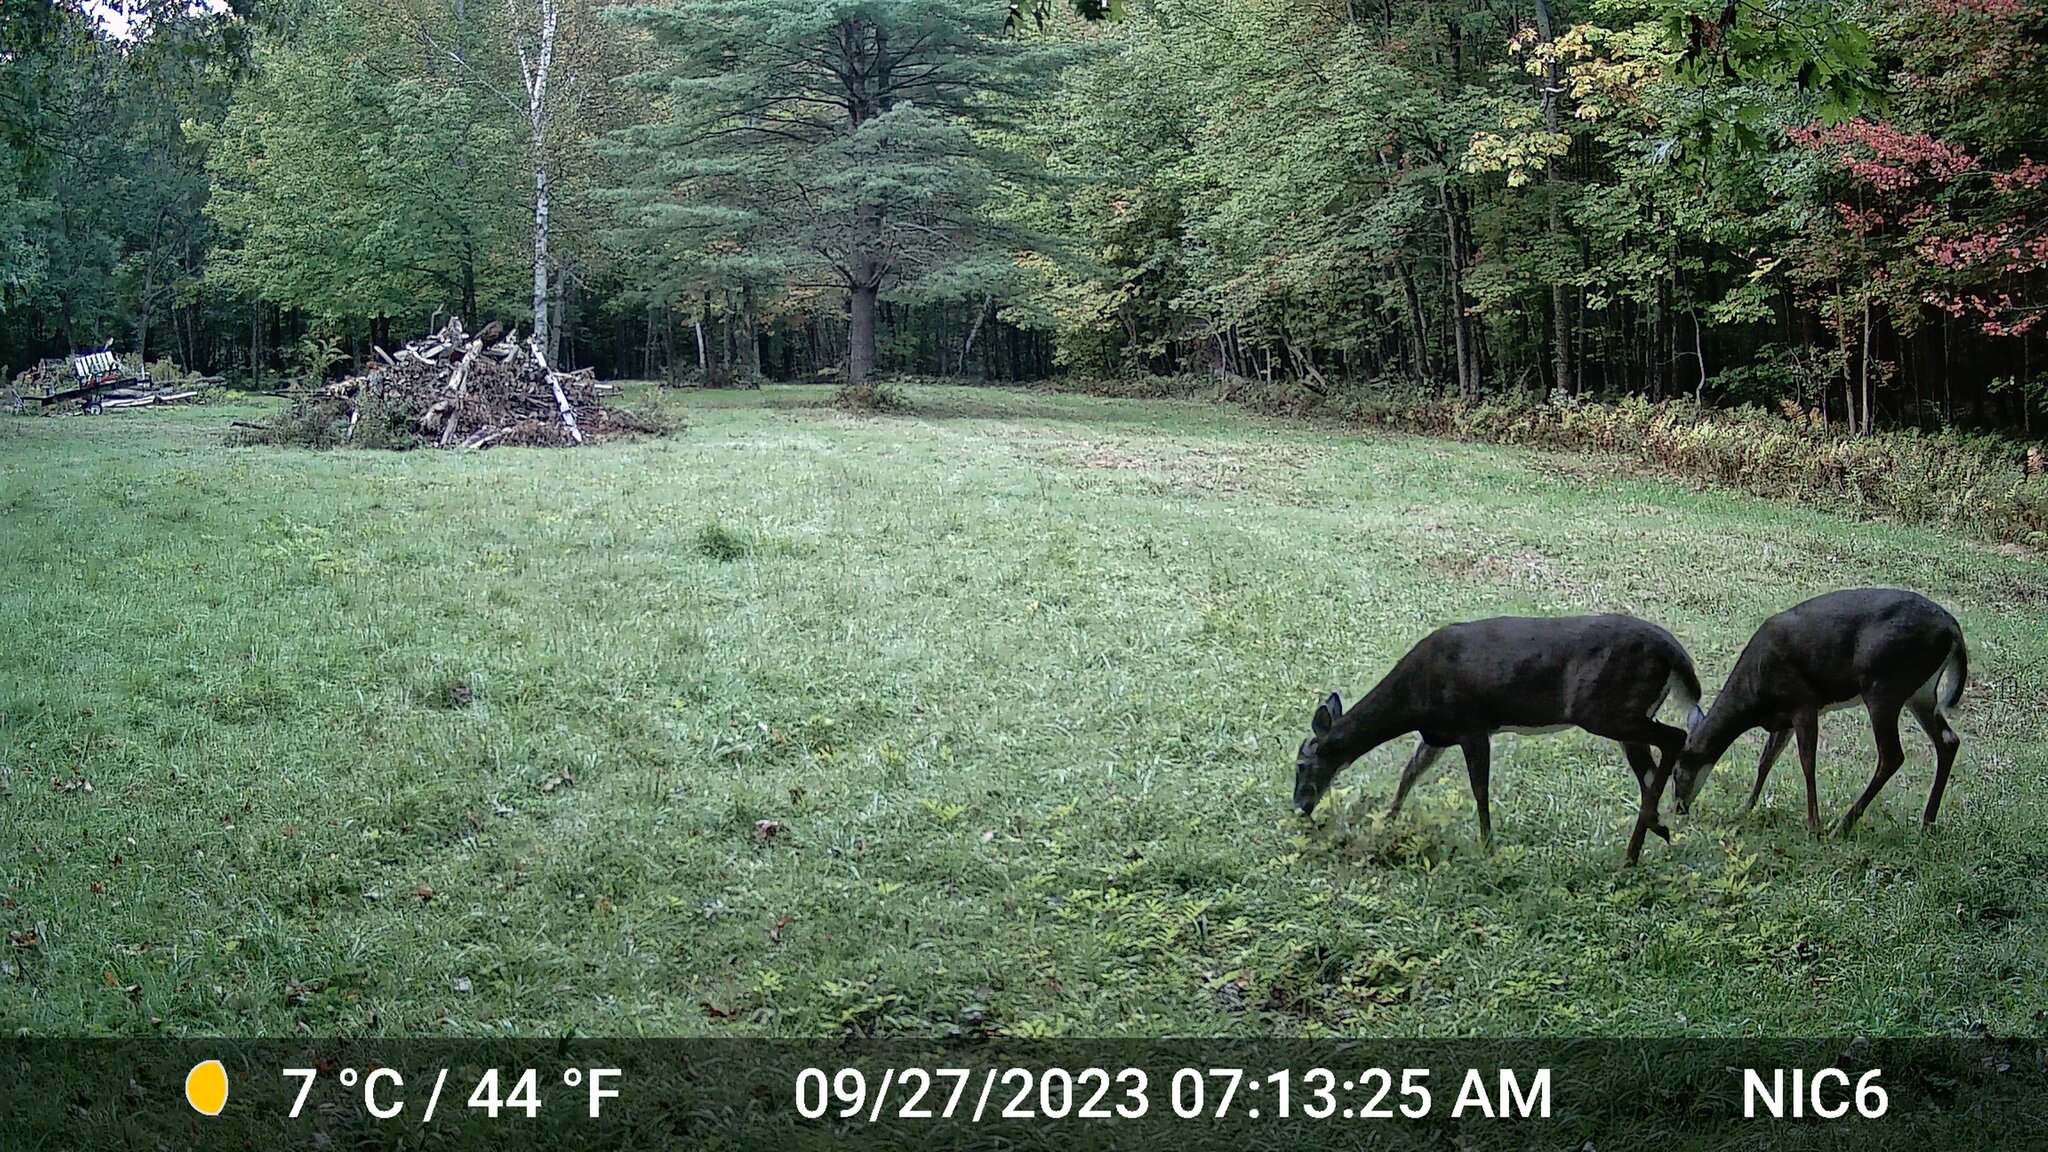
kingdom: Animalia
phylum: Chordata
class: Mammalia
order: Artiodactyla
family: Cervidae
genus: Odocoileus
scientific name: Odocoileus virginianus
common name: White-tailed deer
